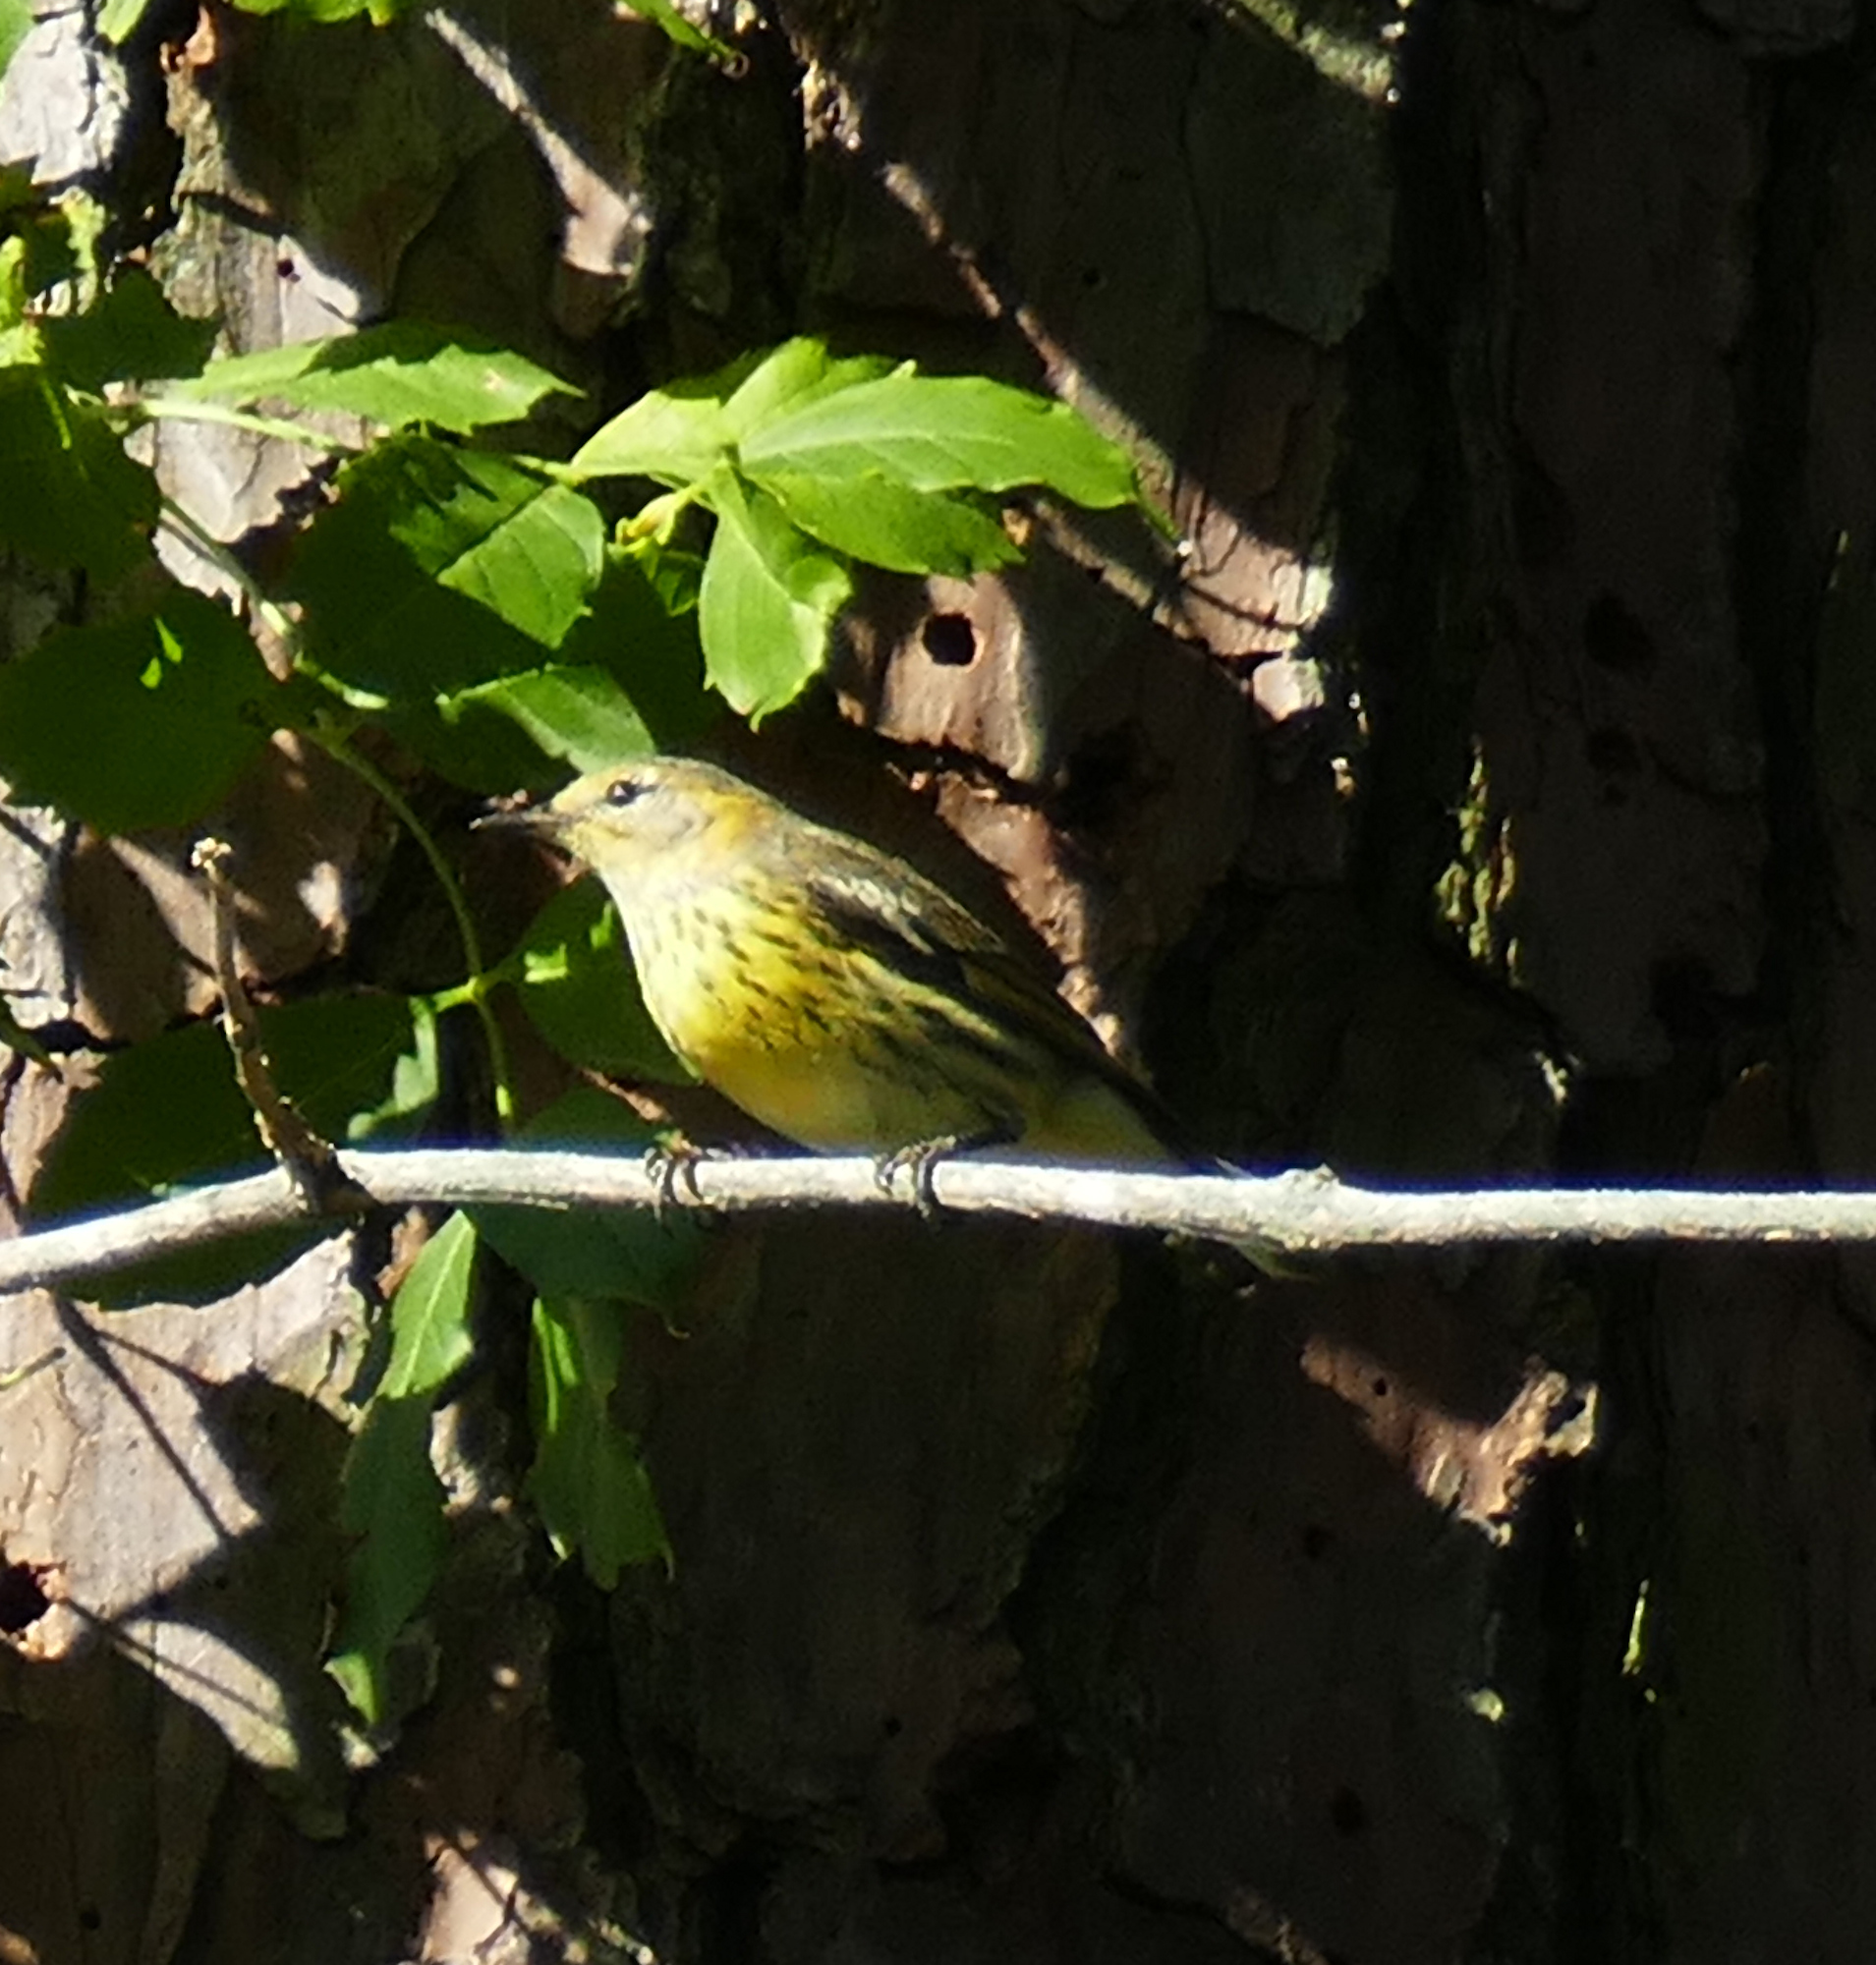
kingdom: Animalia
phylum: Chordata
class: Aves
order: Passeriformes
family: Parulidae
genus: Setophaga
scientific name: Setophaga tigrina
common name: Cape may warbler
